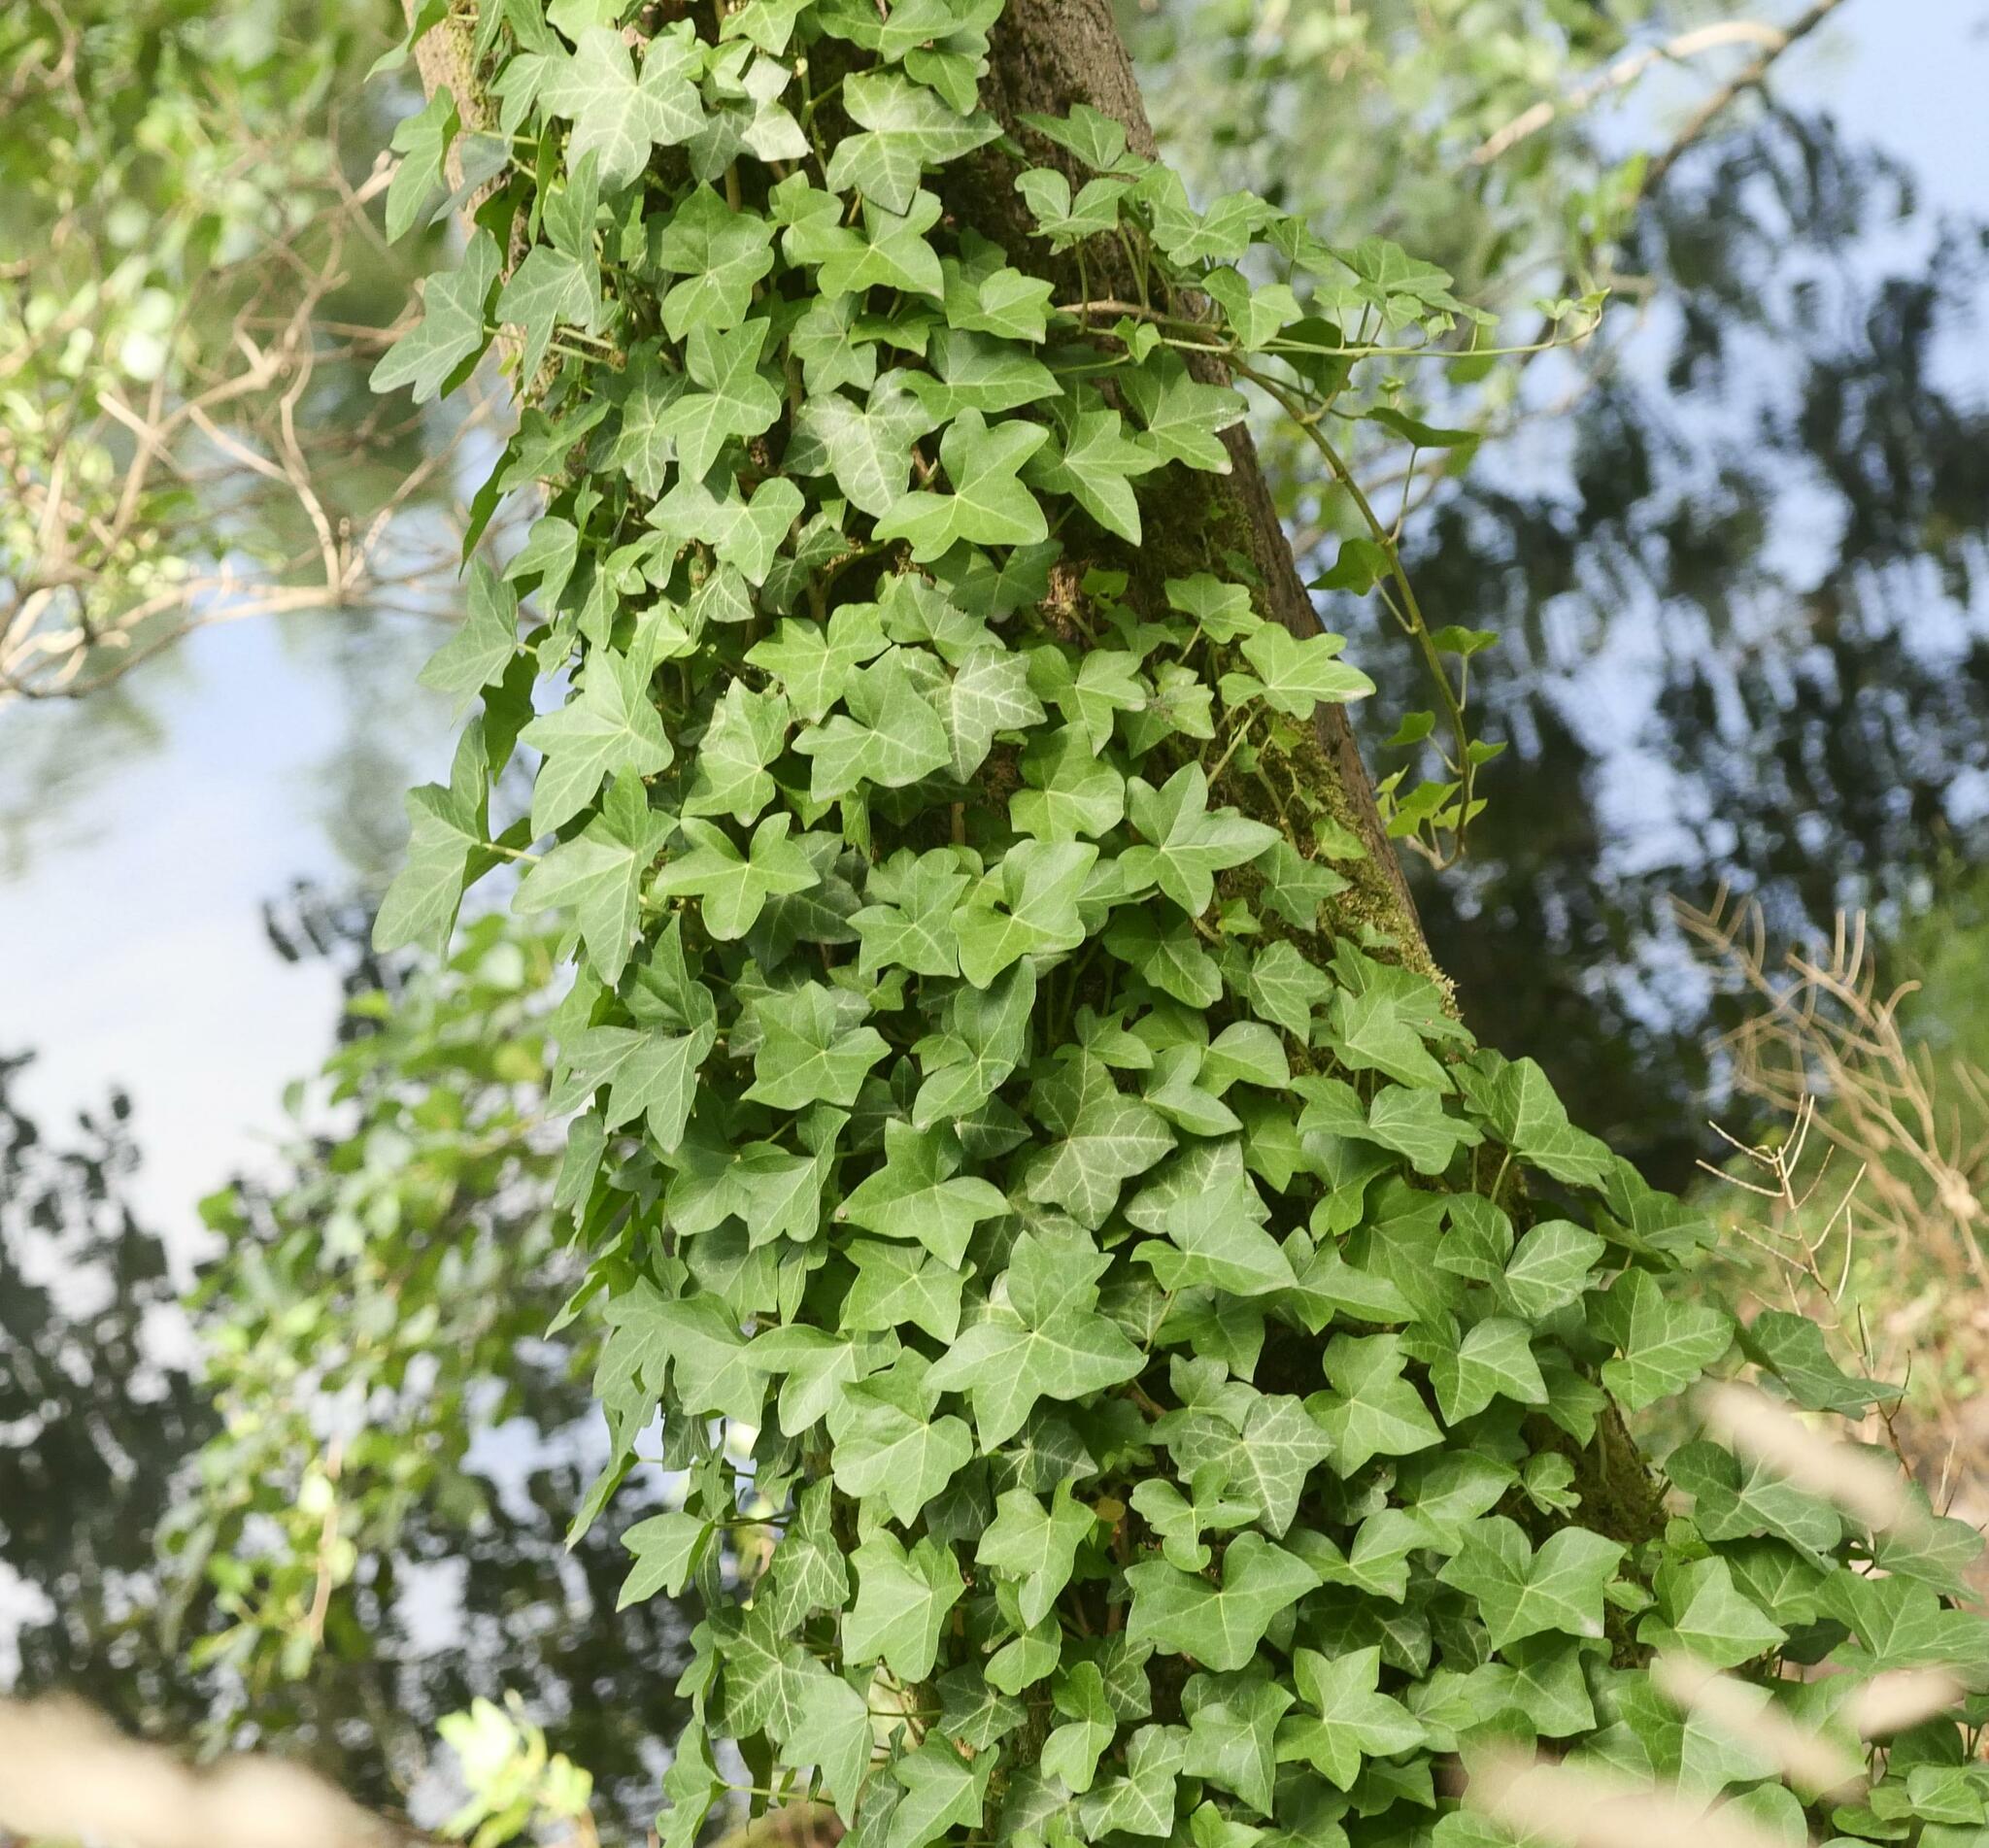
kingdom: Plantae
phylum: Tracheophyta
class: Magnoliopsida
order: Apiales
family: Araliaceae
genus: Hedera
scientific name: Hedera helix
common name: Ivy
